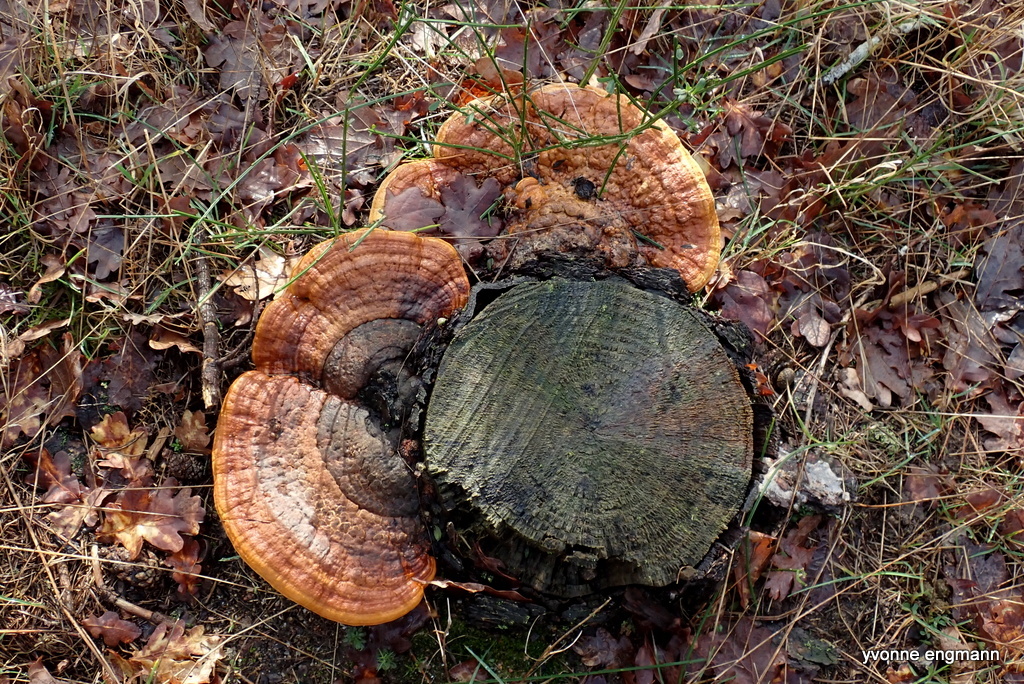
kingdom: Fungi
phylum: Basidiomycota
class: Agaricomycetes
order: Polyporales
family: Fomitopsidaceae
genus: Fomitopsis
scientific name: Fomitopsis pinicola
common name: Red-belted bracket
